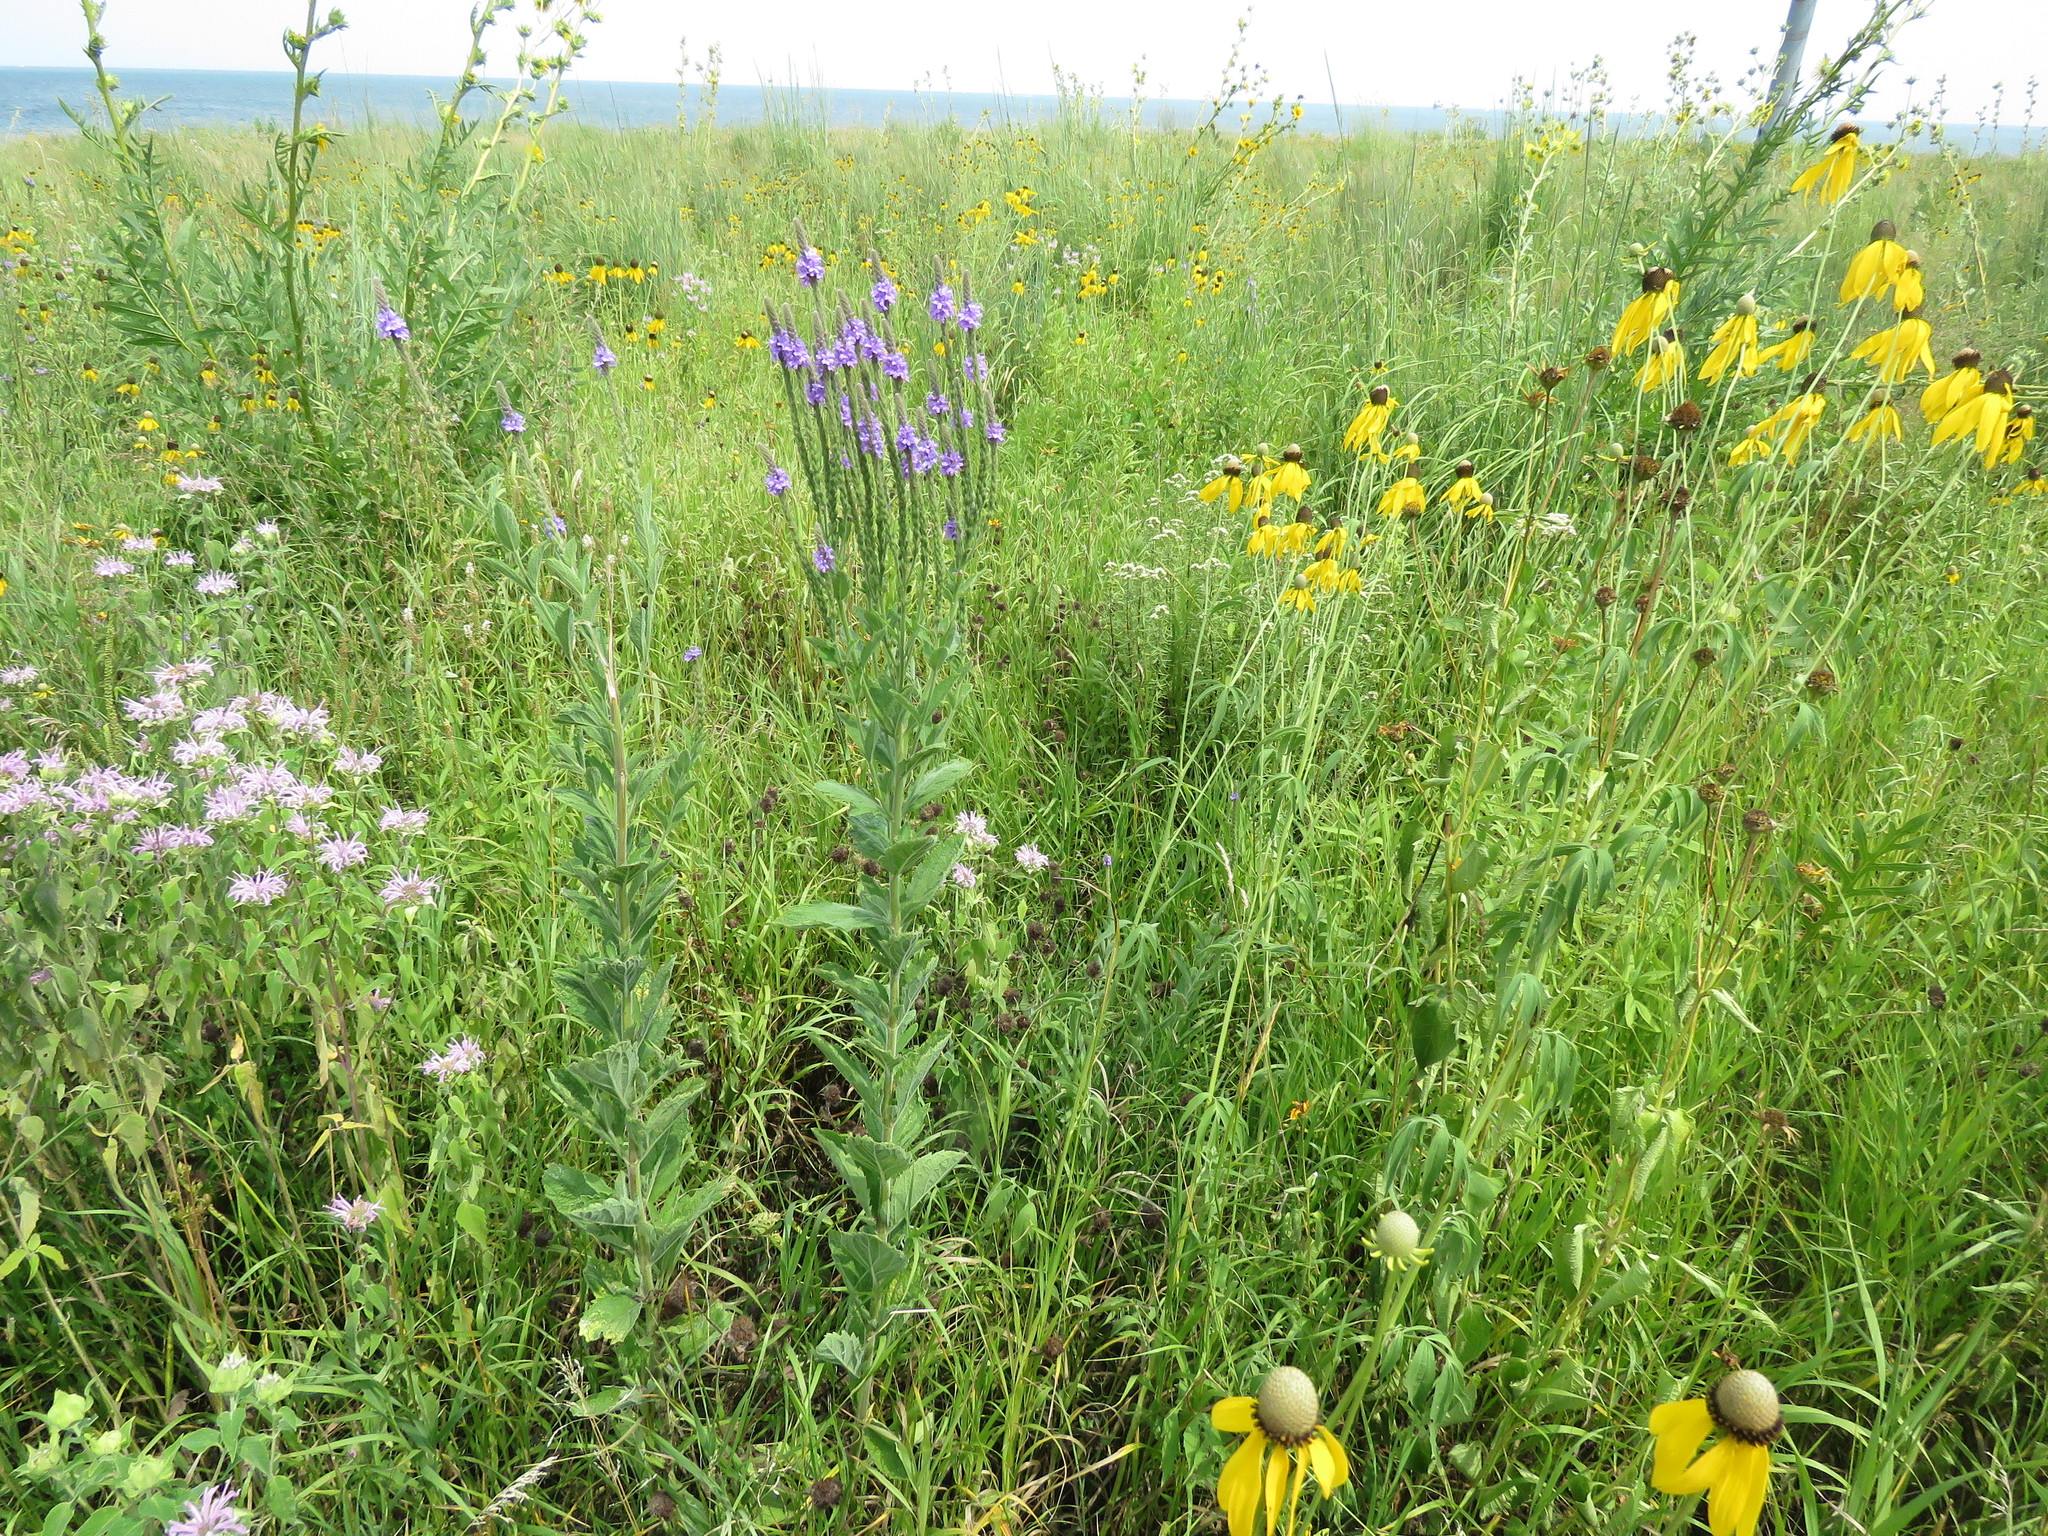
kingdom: Plantae
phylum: Tracheophyta
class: Magnoliopsida
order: Lamiales
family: Verbenaceae
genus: Verbena
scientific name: Verbena stricta
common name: Hoary vervain
